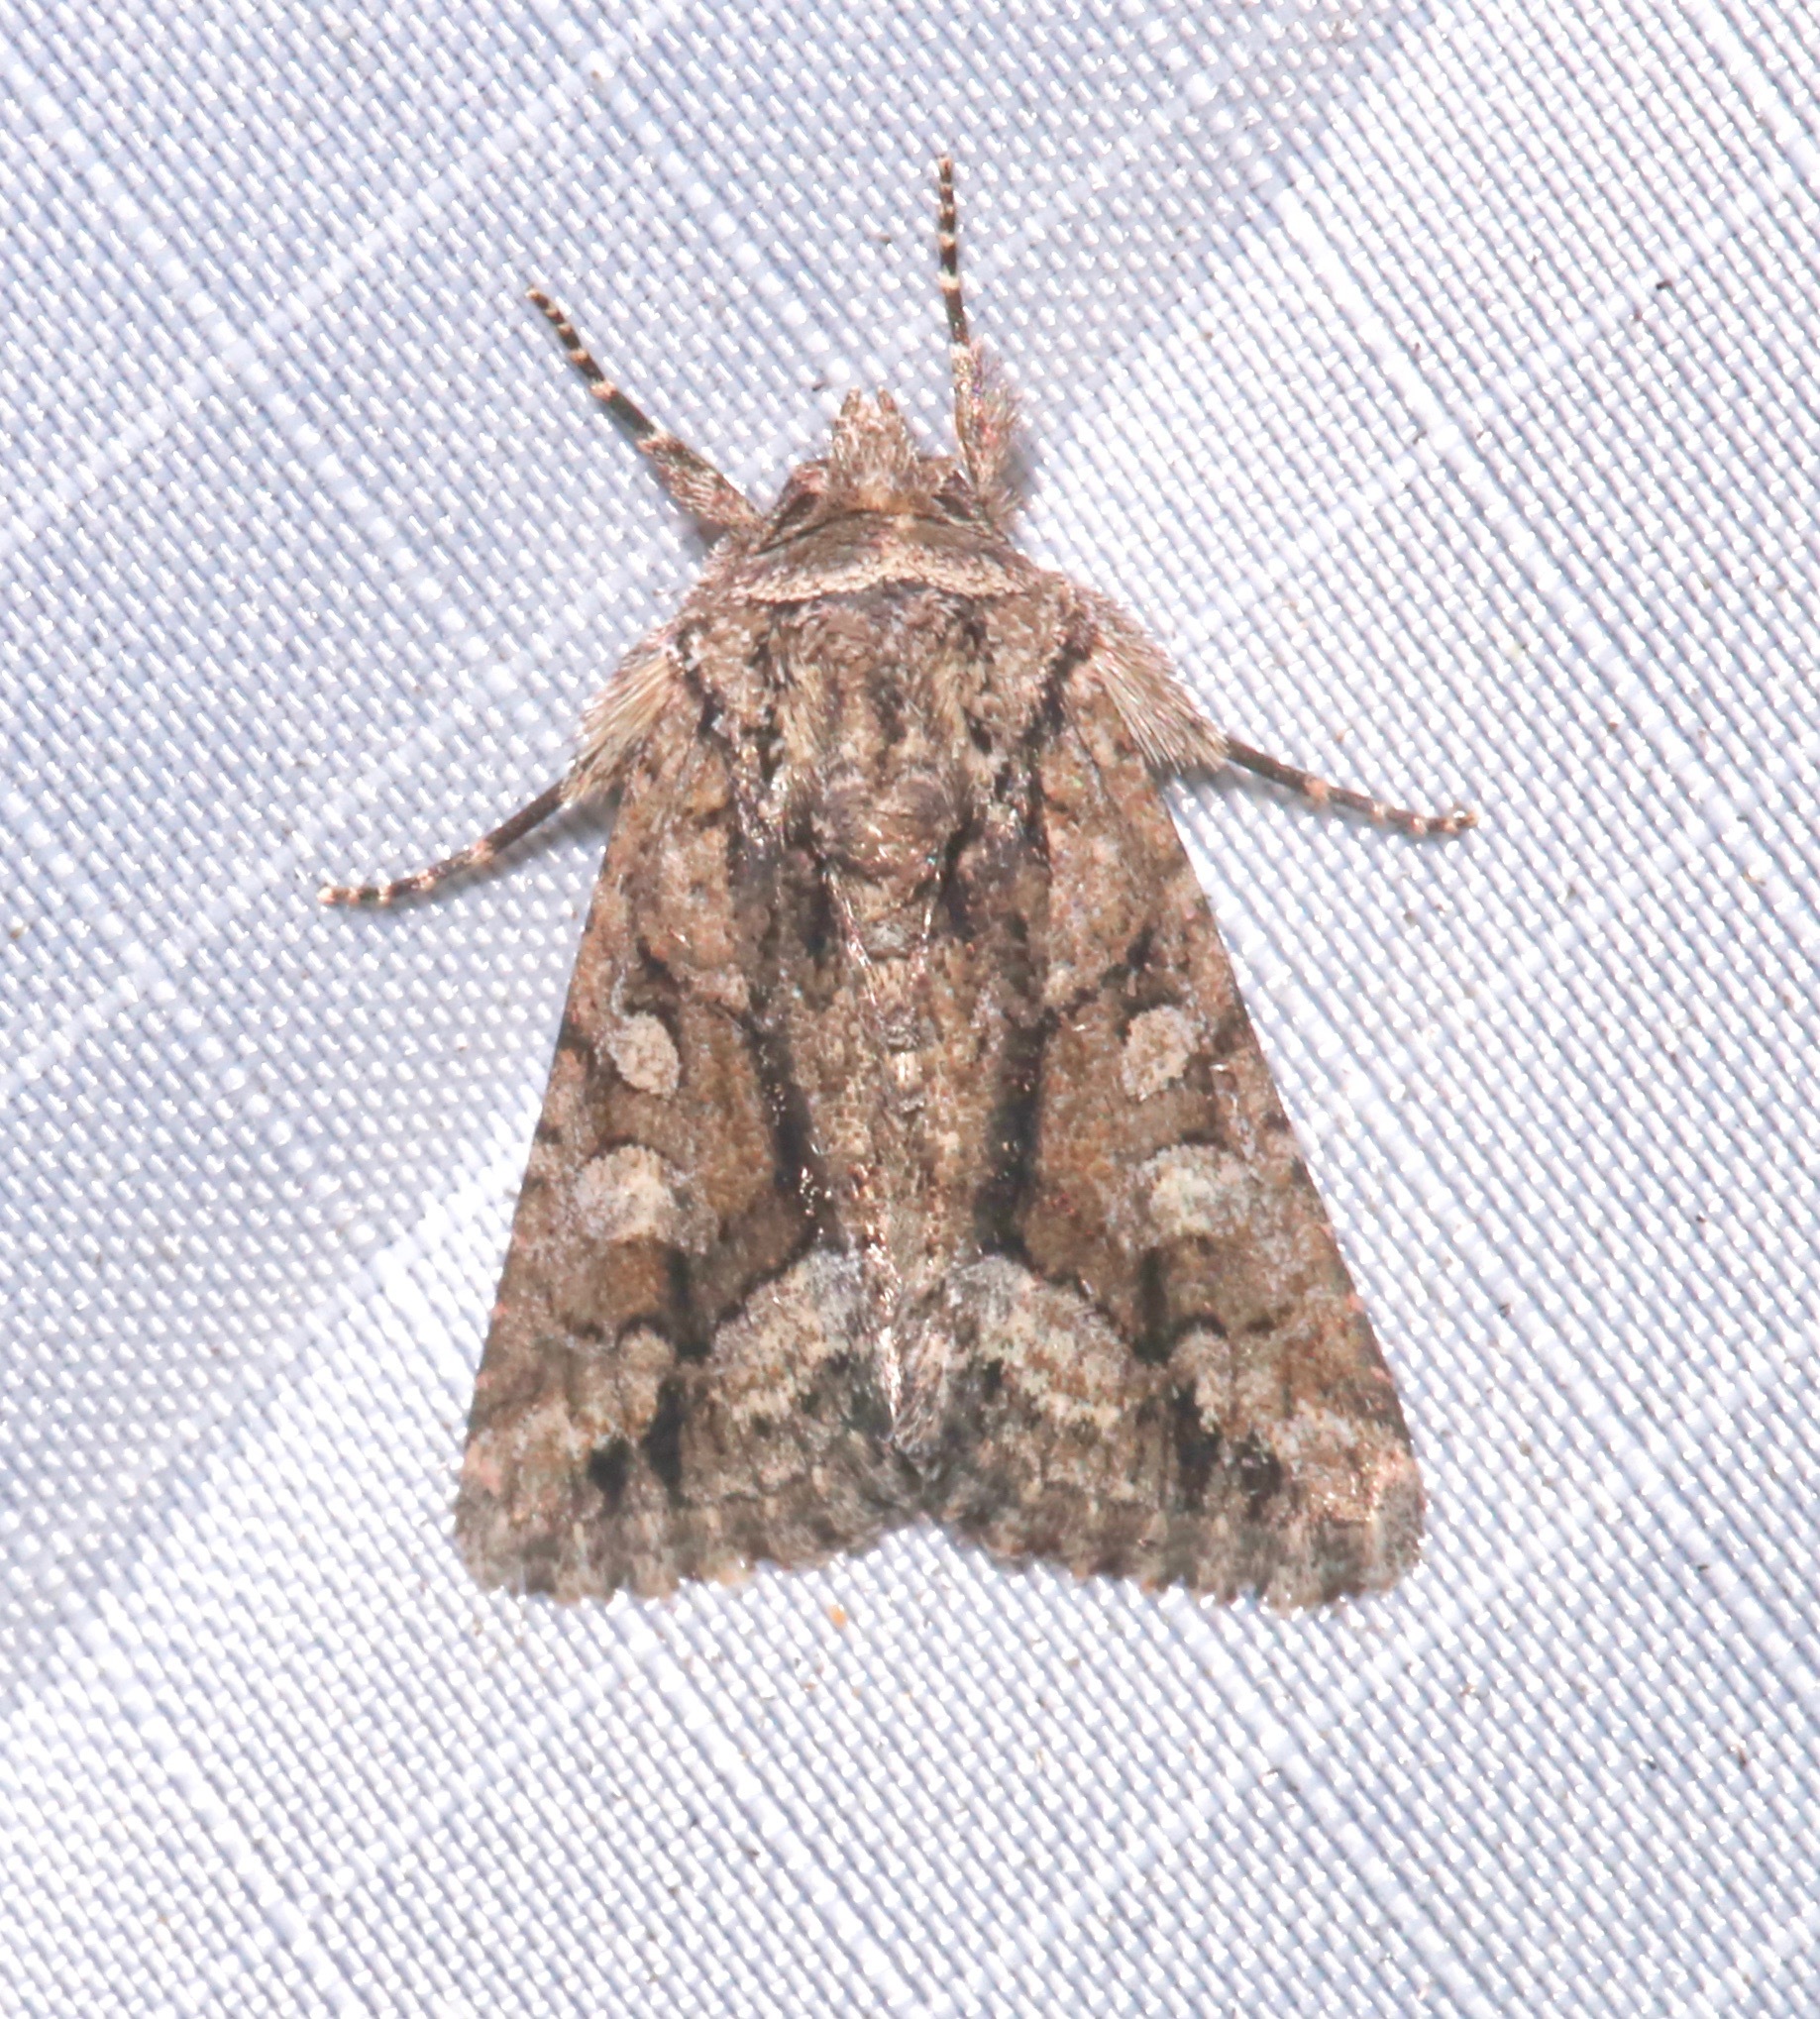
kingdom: Animalia
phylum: Arthropoda
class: Insecta
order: Lepidoptera
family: Noctuidae
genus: Pseudanarta
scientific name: Pseudanarta singula
